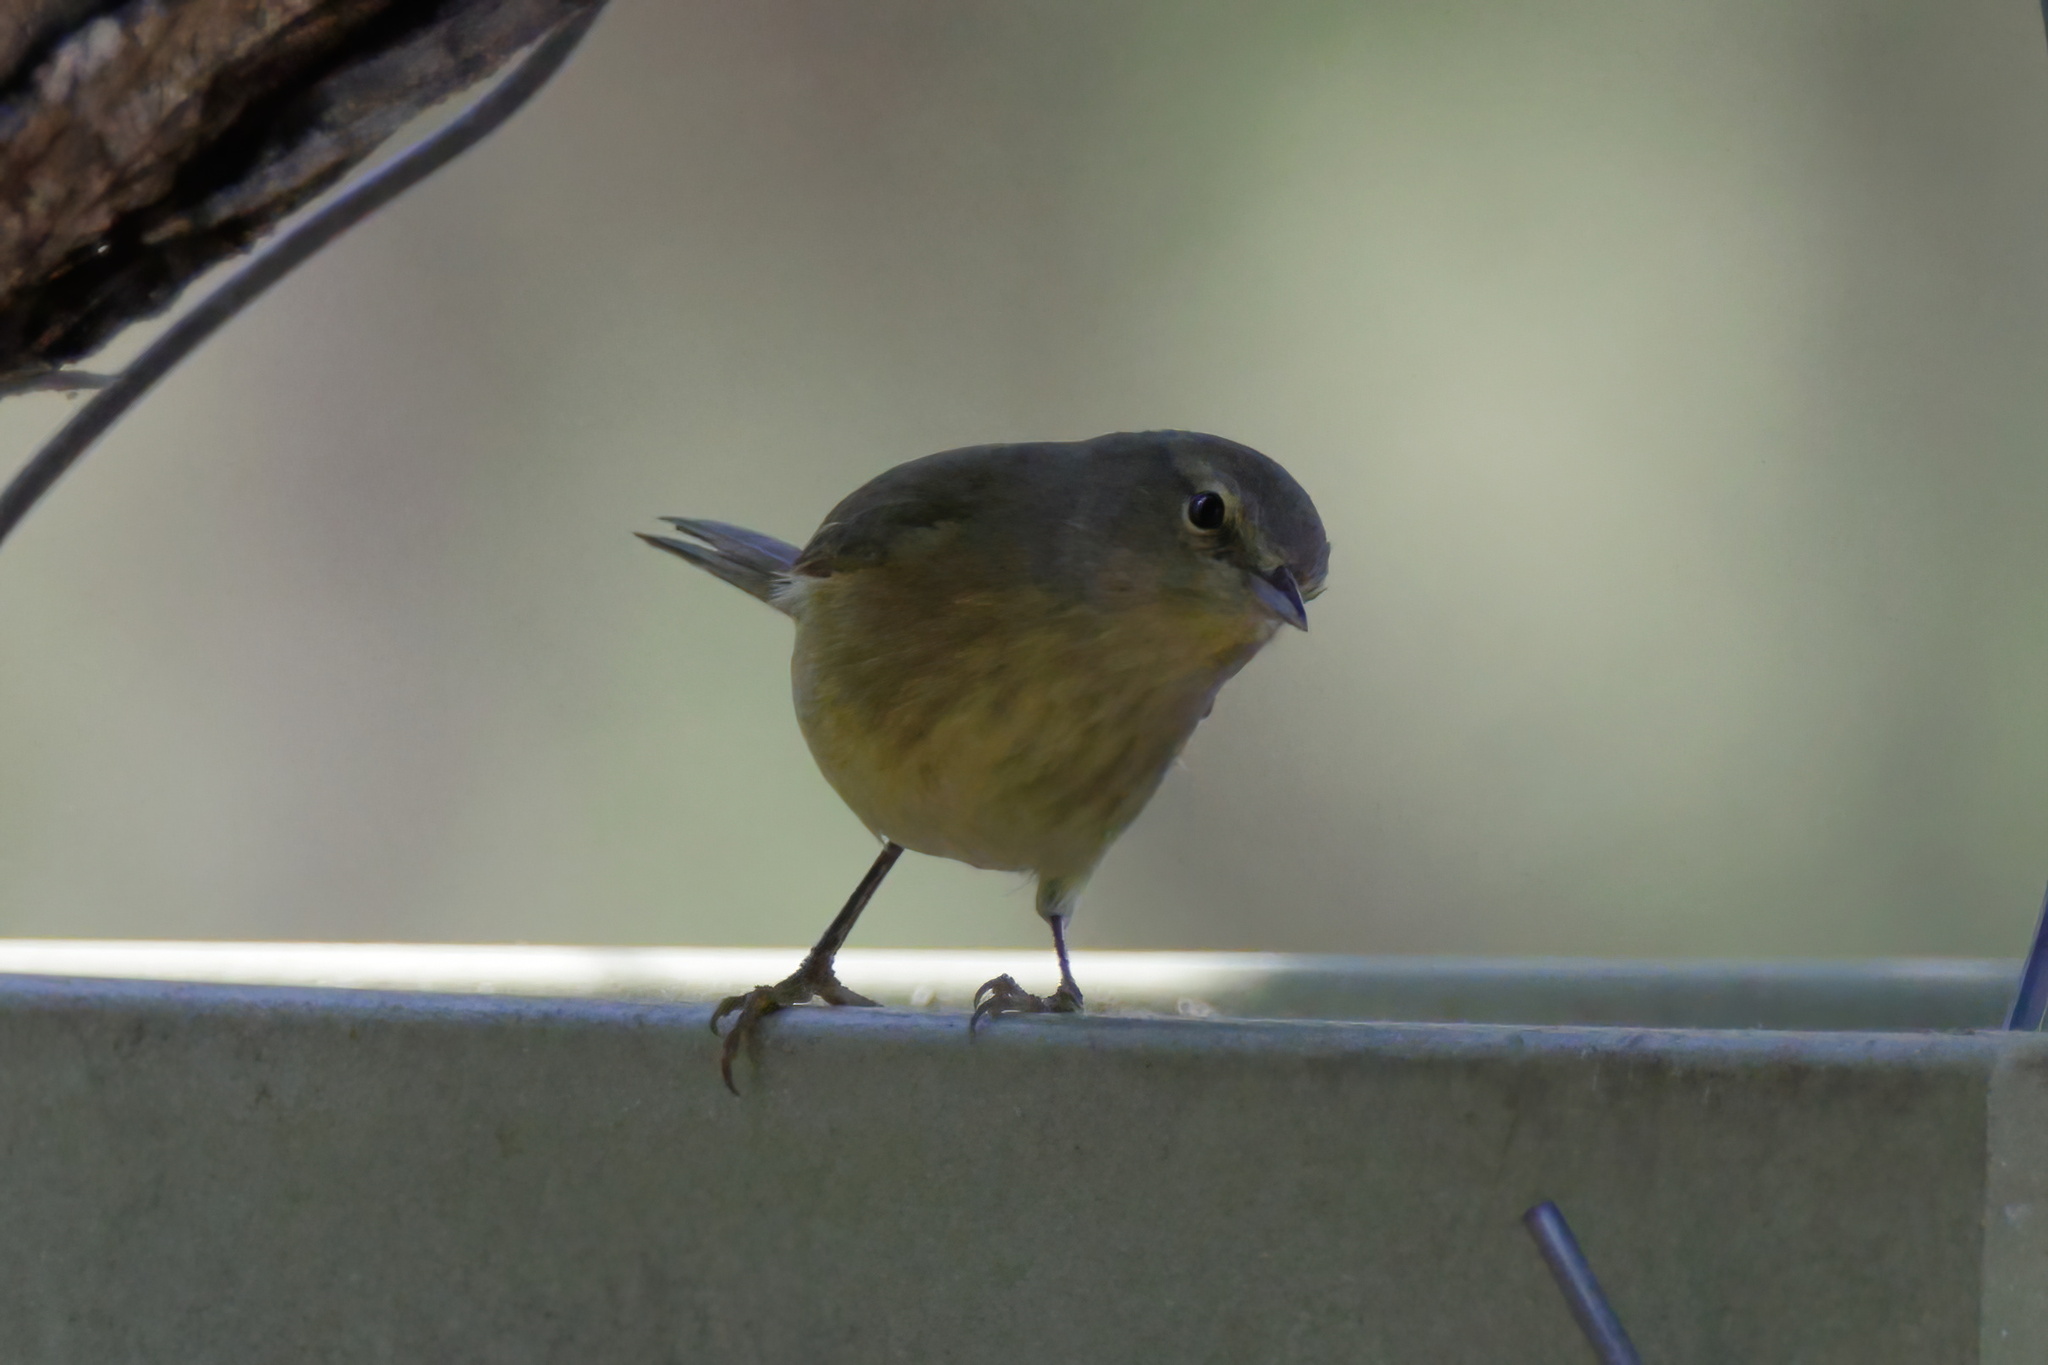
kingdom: Animalia
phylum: Chordata
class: Aves
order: Passeriformes
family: Parulidae
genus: Leiothlypis
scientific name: Leiothlypis celata
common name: Orange-crowned warbler
